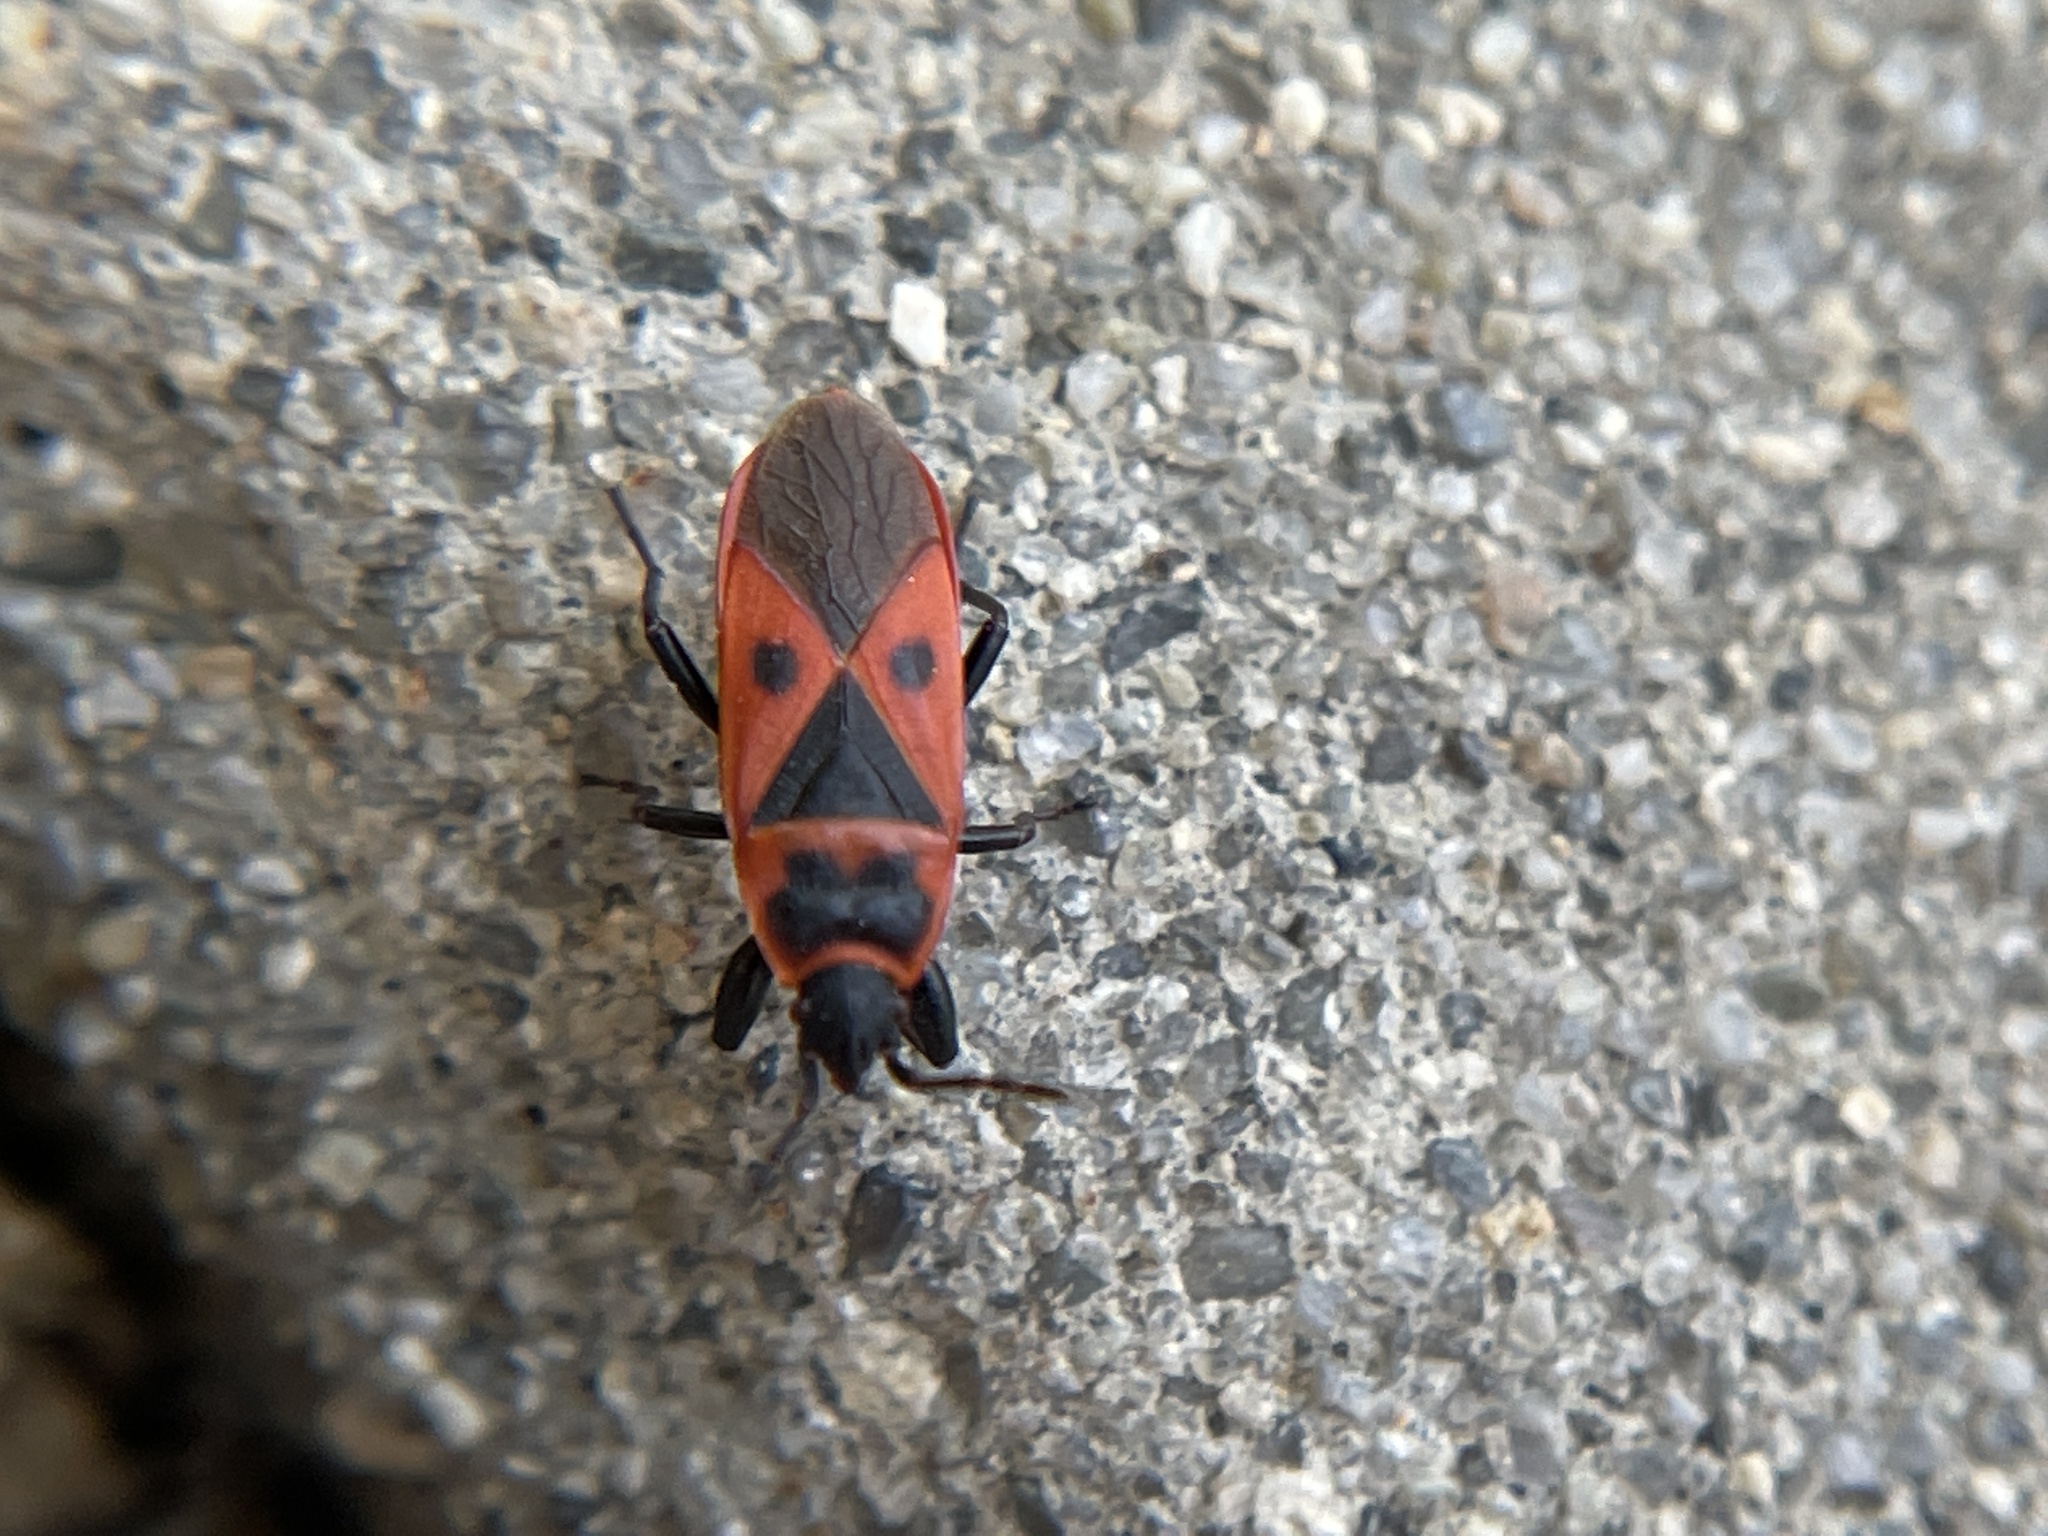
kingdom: Animalia
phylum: Arthropoda
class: Insecta
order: Hemiptera
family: Pyrrhocoridae
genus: Scantius
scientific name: Scantius aegyptius
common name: Red bug
